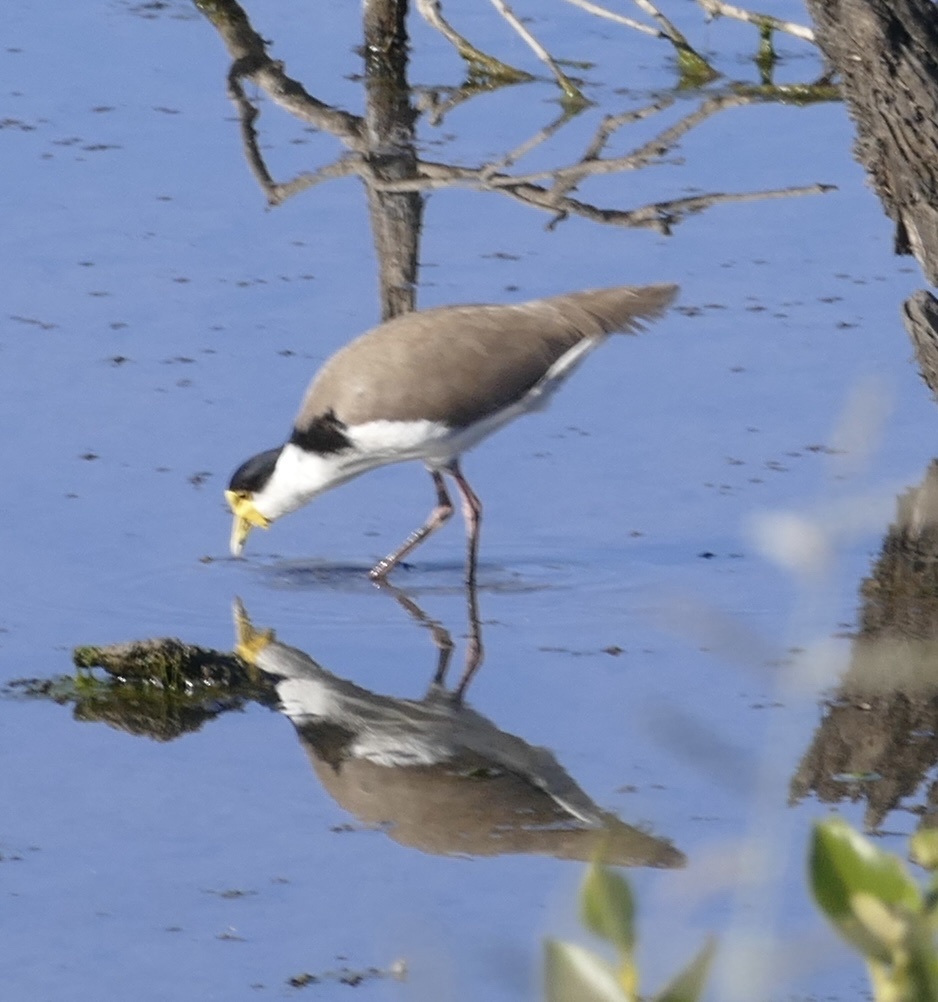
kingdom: Animalia
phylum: Chordata
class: Aves
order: Charadriiformes
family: Charadriidae
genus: Vanellus
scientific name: Vanellus miles
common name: Masked lapwing
